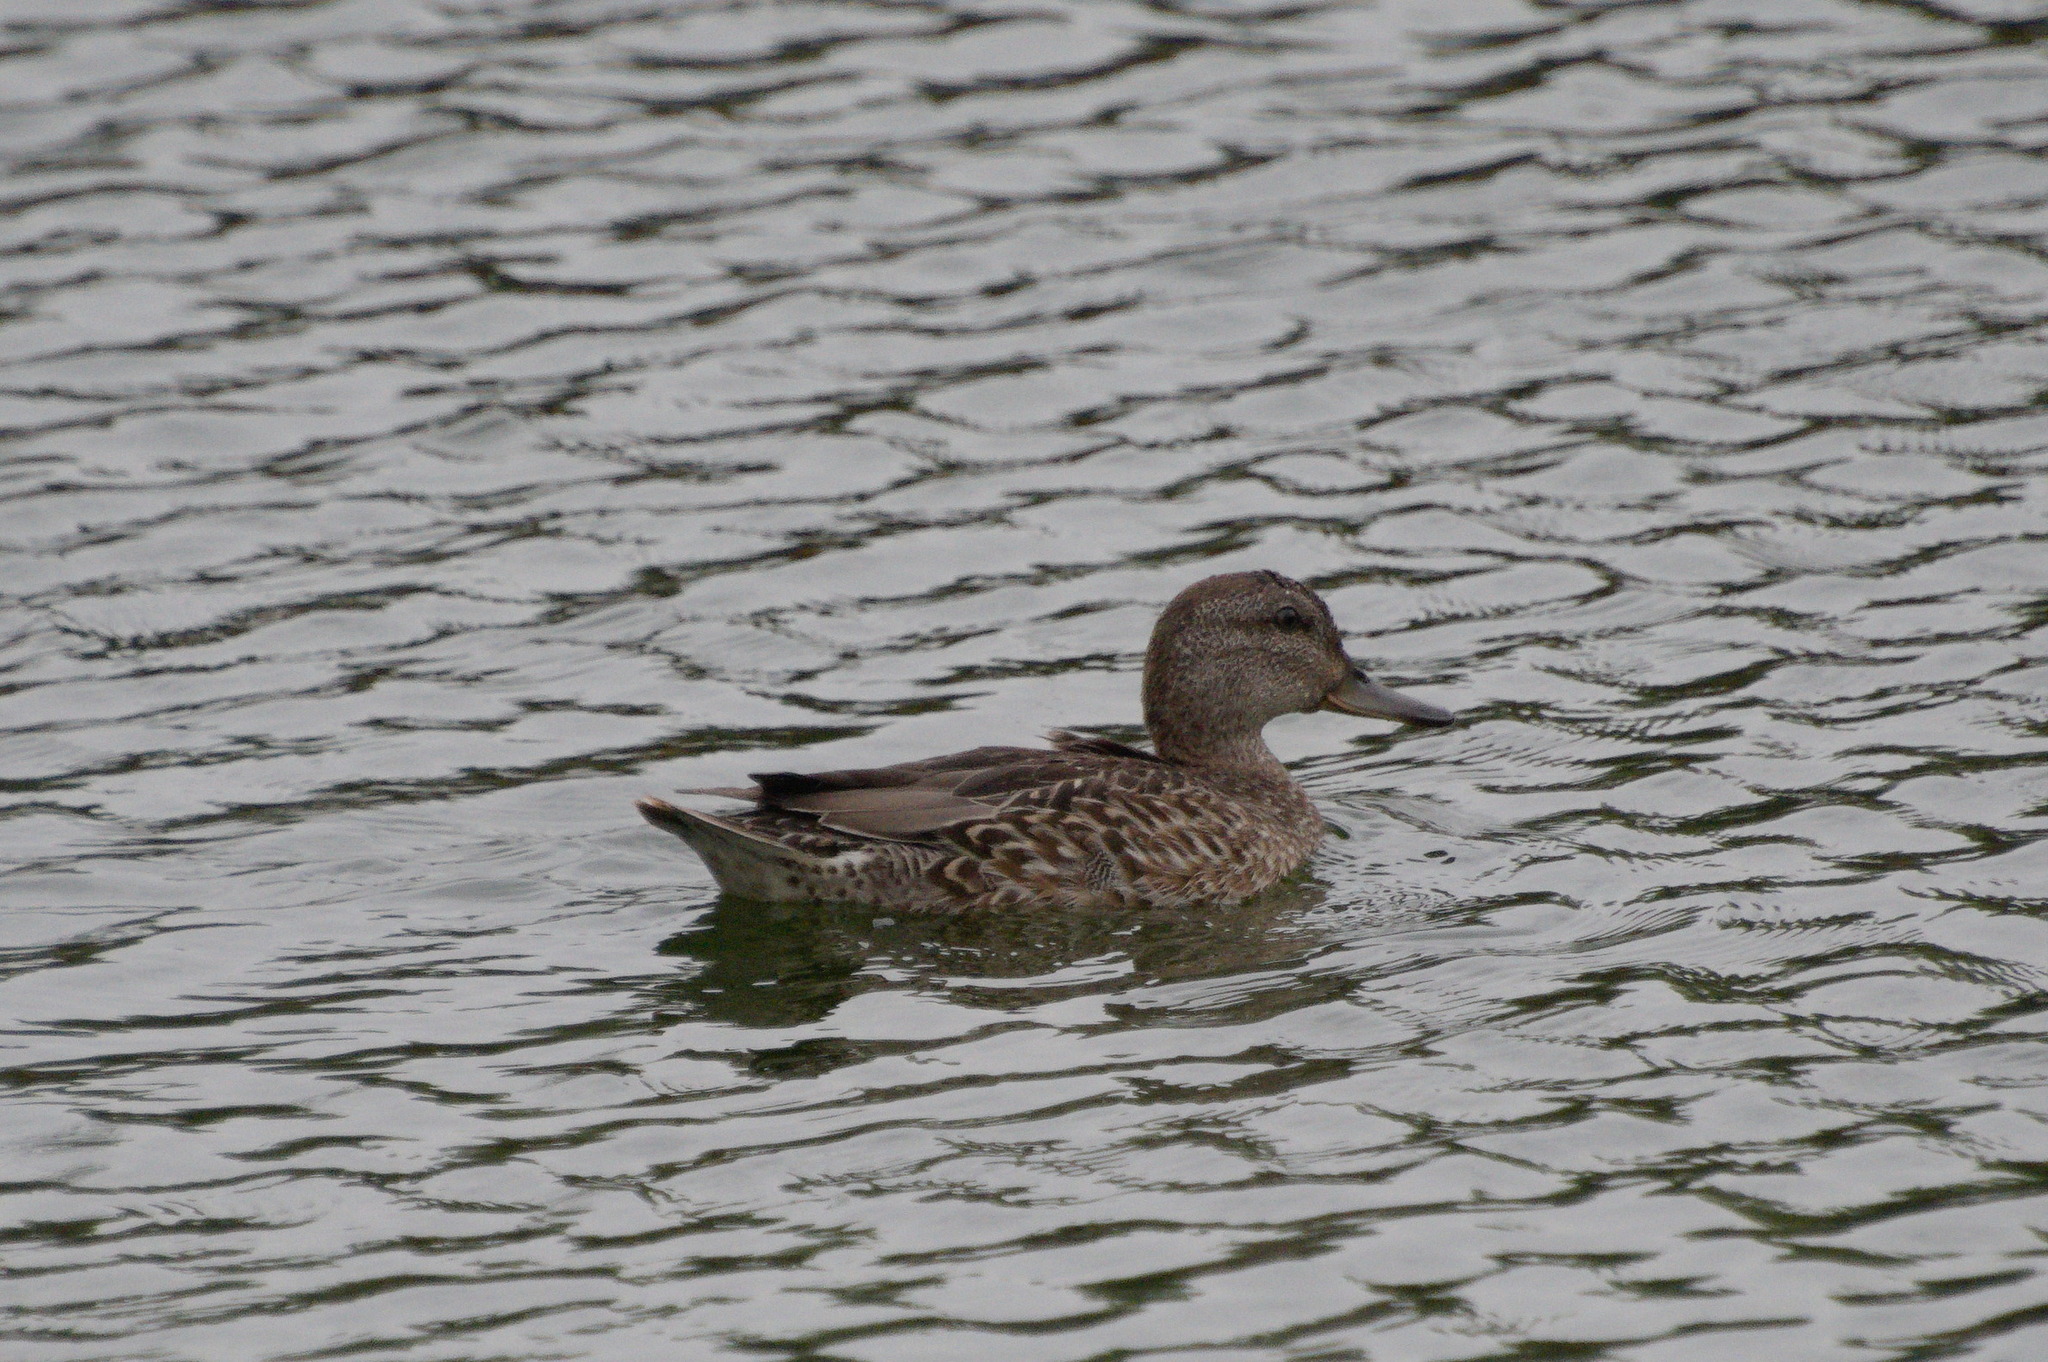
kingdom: Animalia
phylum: Chordata
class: Aves
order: Anseriformes
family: Anatidae
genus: Anas
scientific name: Anas crecca
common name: Eurasian teal
